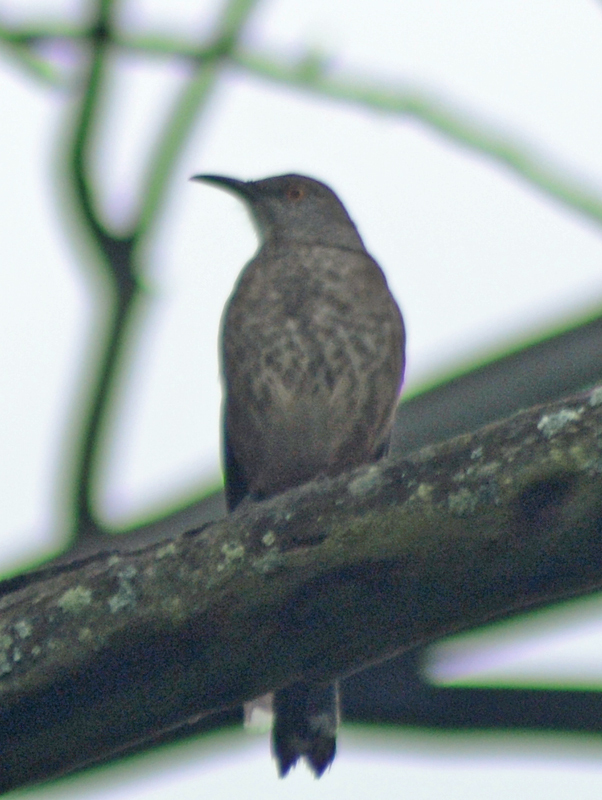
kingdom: Animalia
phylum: Chordata
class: Aves
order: Passeriformes
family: Mimidae
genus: Toxostoma
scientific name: Toxostoma curvirostre
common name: Curve-billed thrasher
